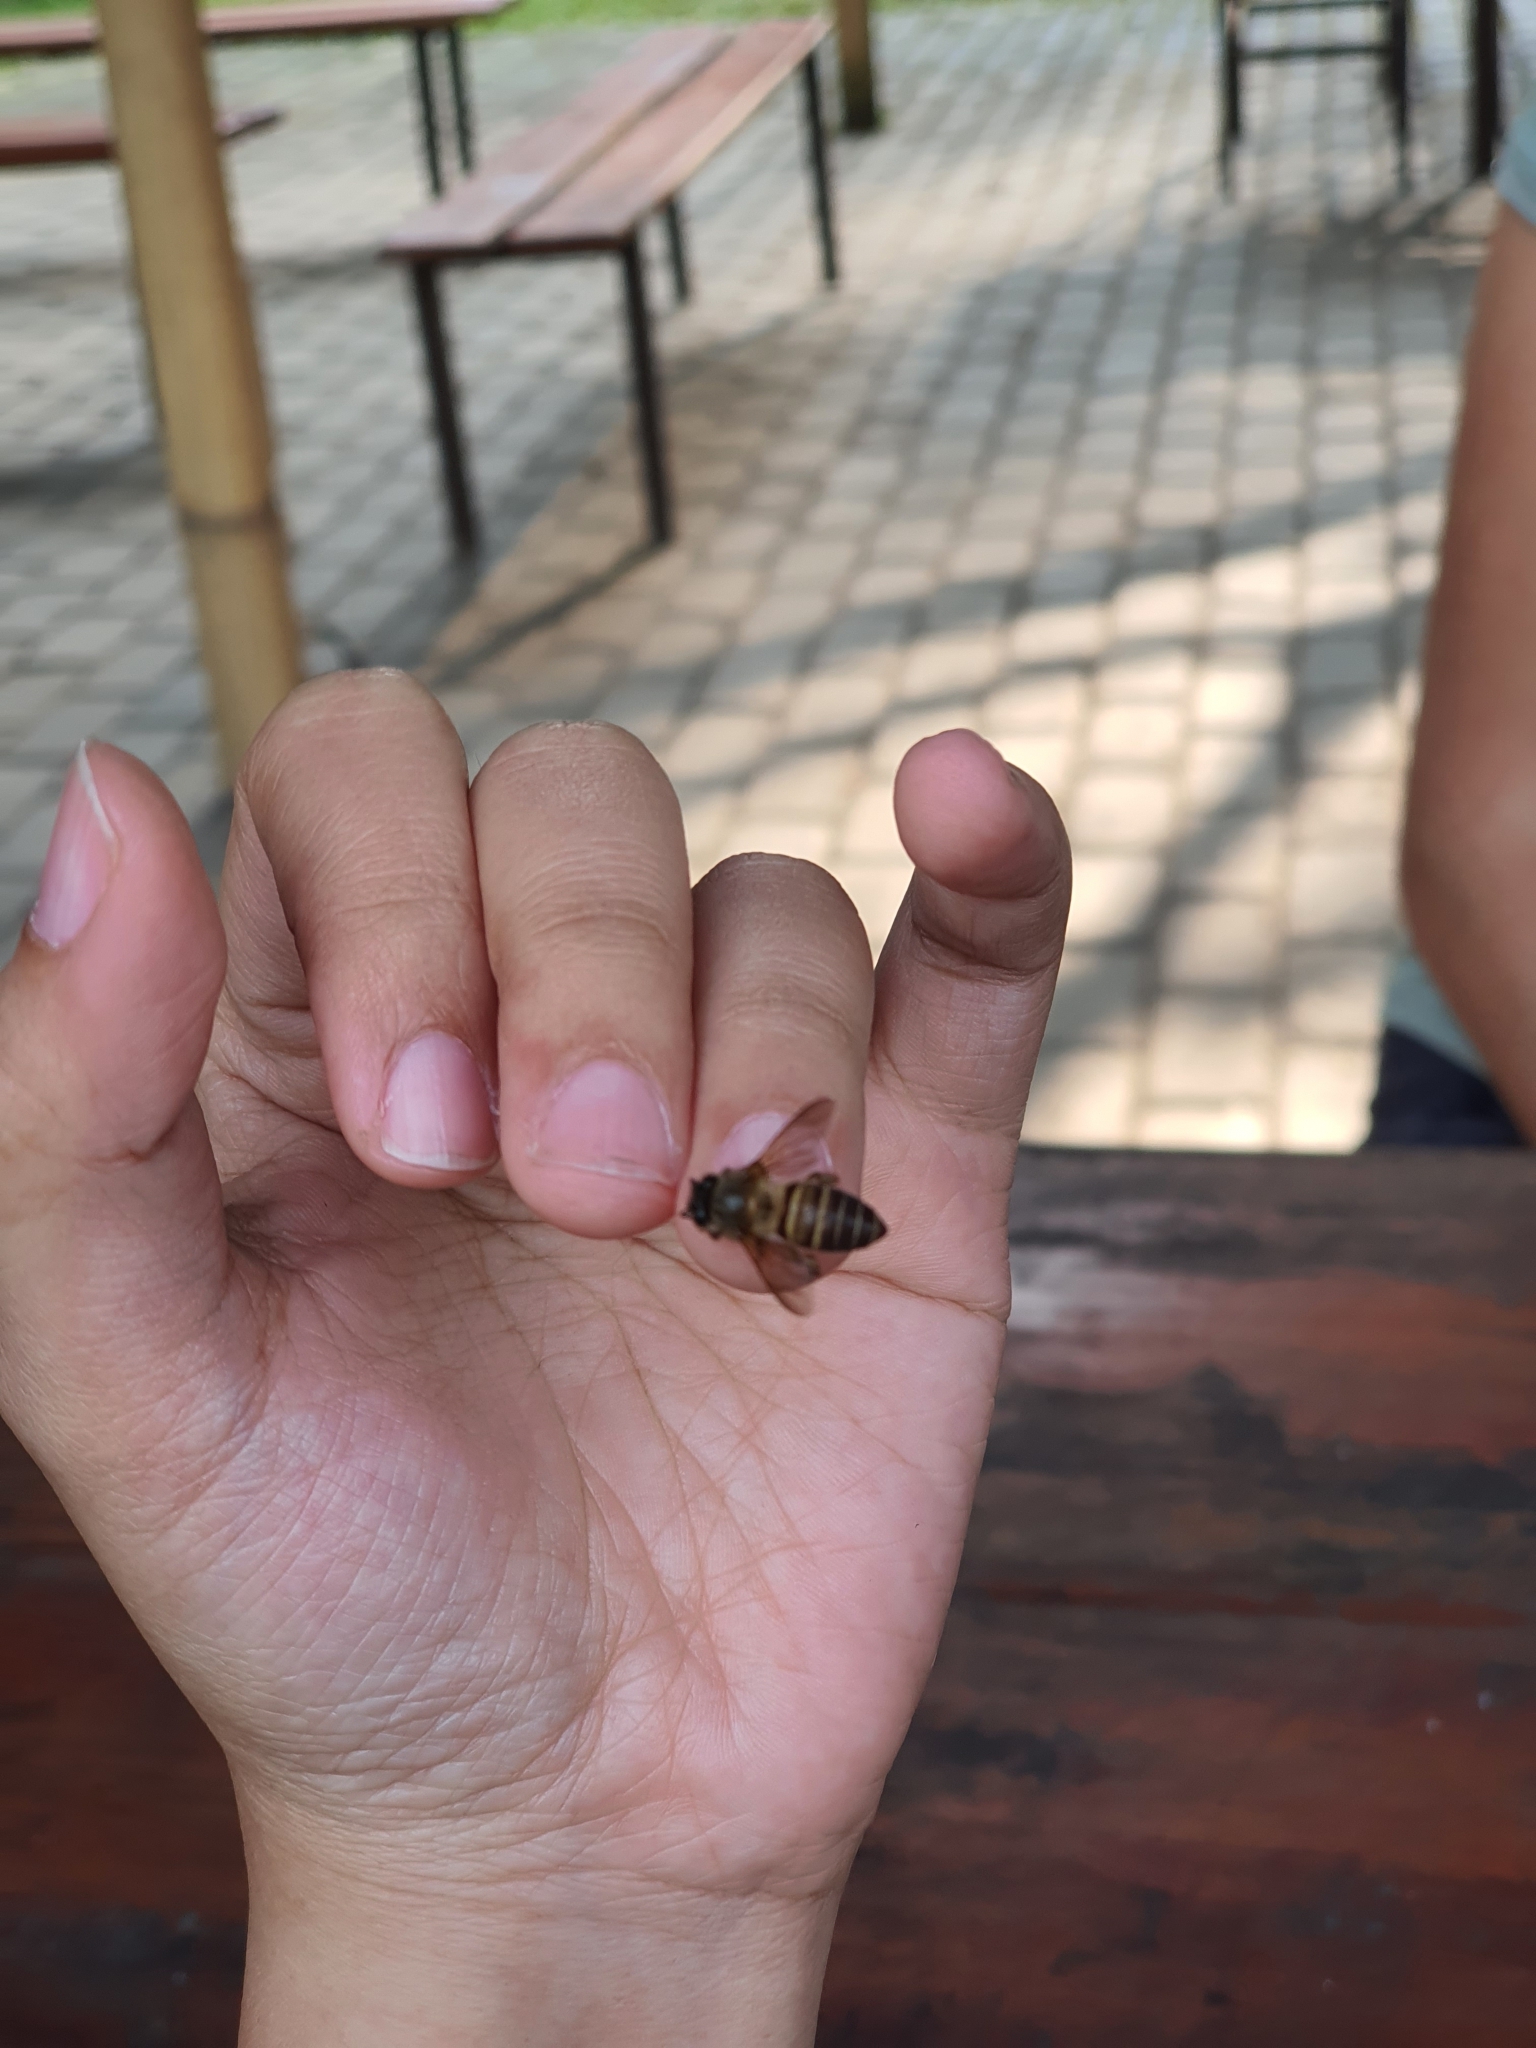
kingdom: Animalia
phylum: Arthropoda
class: Insecta
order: Hymenoptera
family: Apidae
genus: Apis
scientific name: Apis cerana
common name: Honey bee
